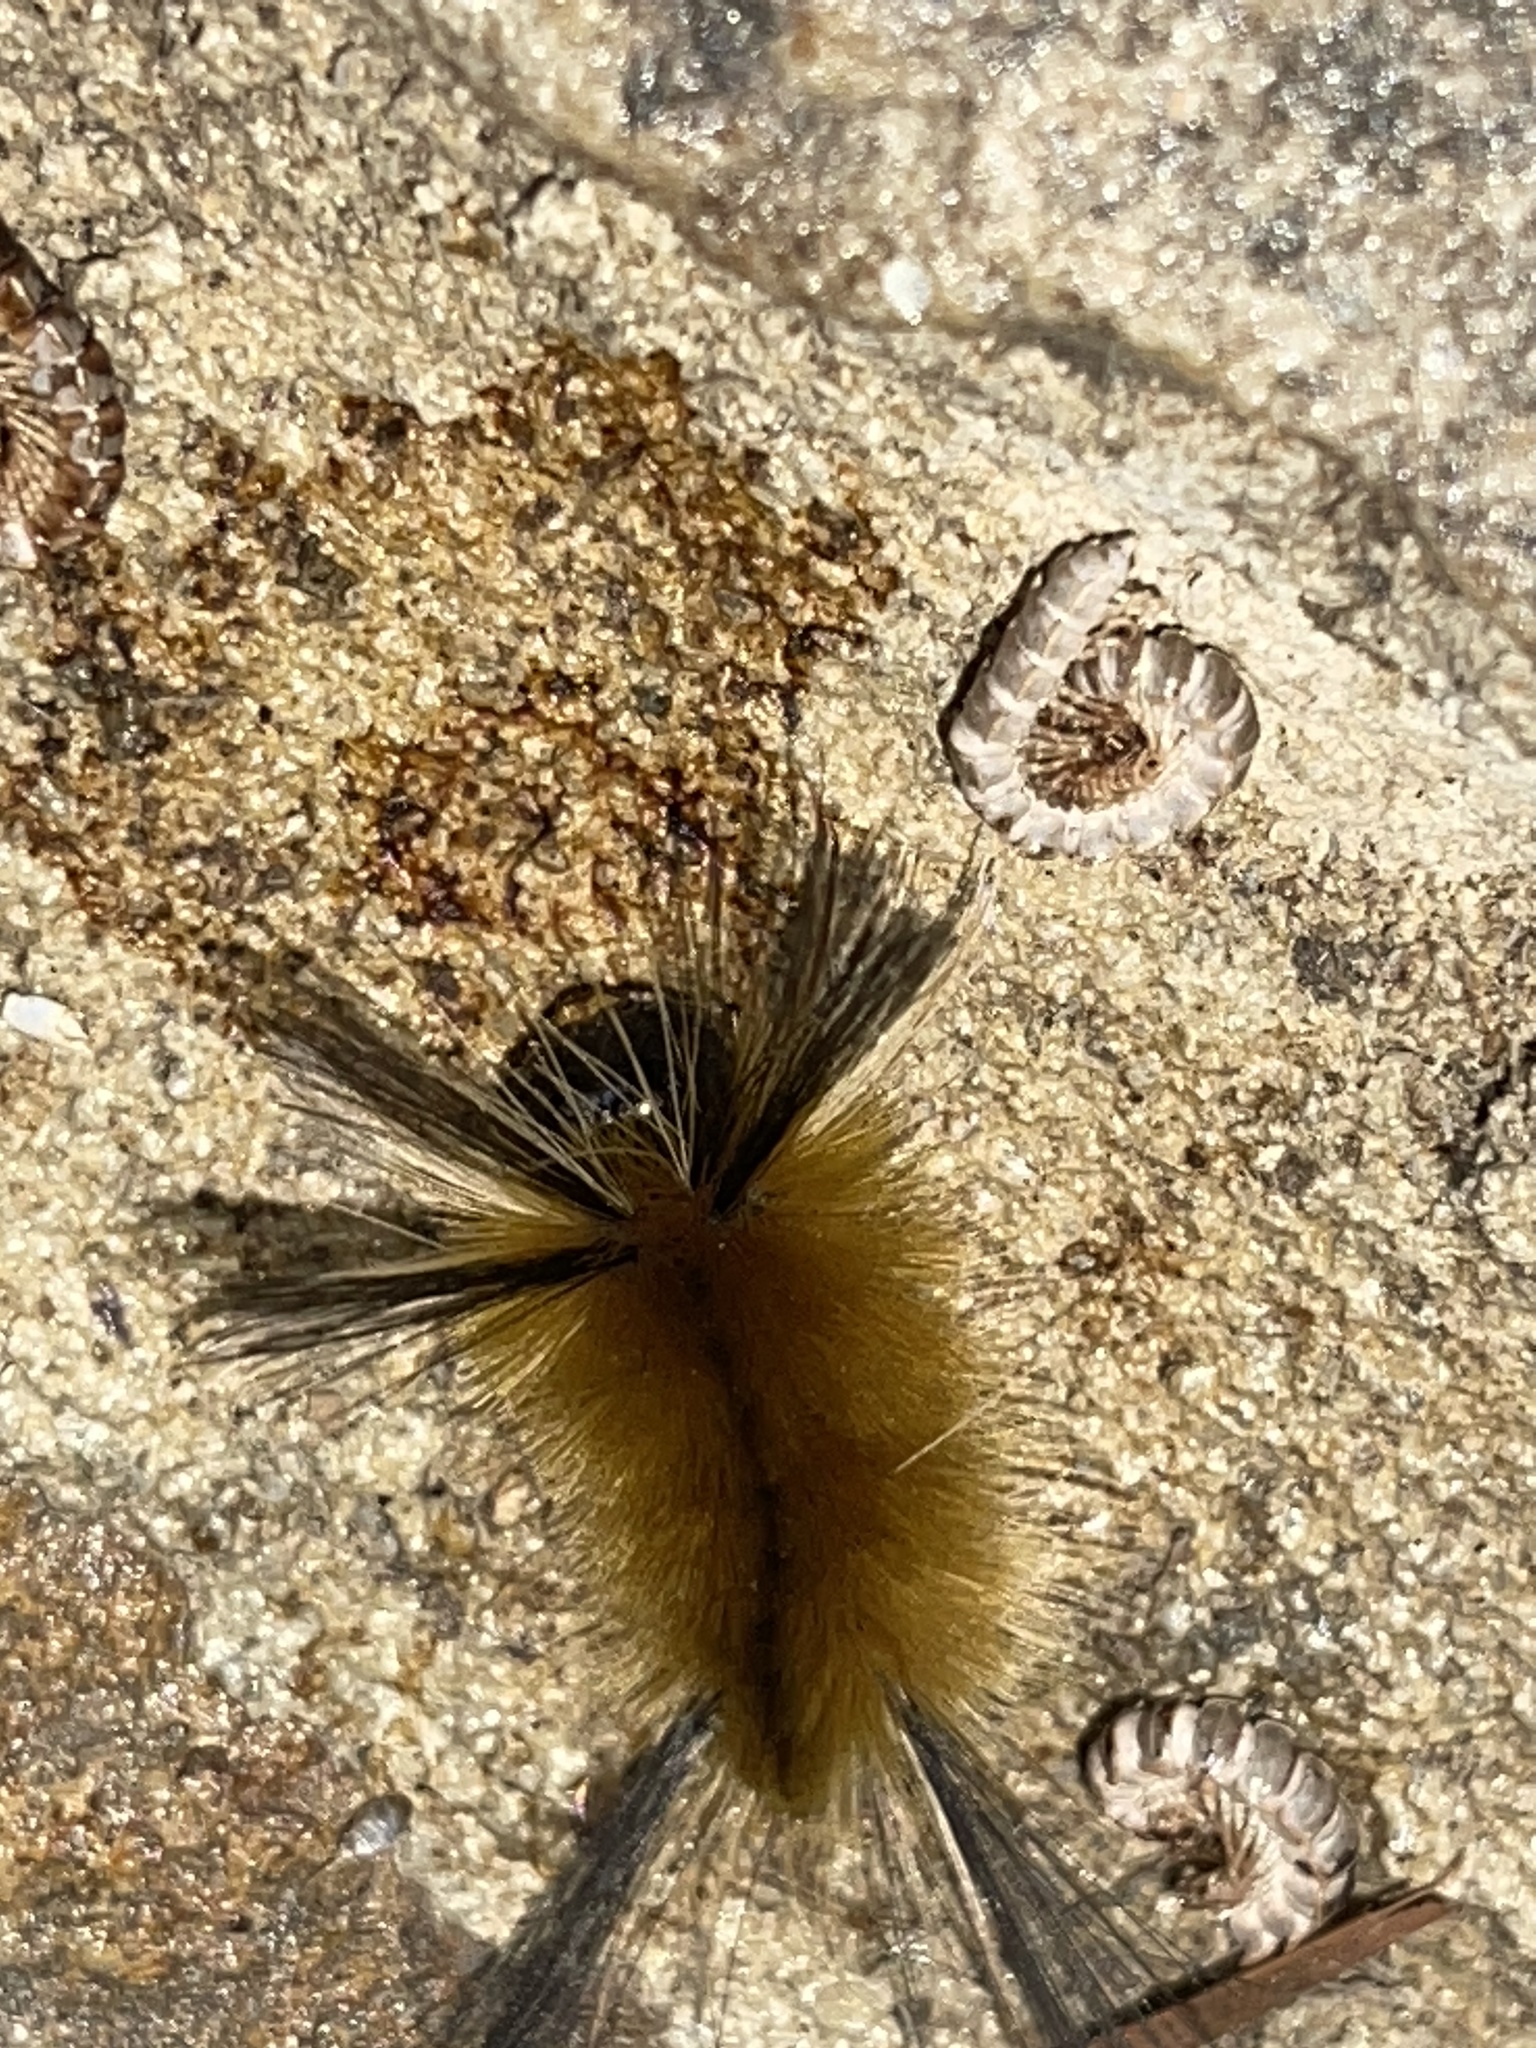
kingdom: Animalia
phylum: Arthropoda
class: Insecta
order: Lepidoptera
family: Erebidae
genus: Halysidota
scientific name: Halysidota tessellaris
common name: Banded tussock moth
